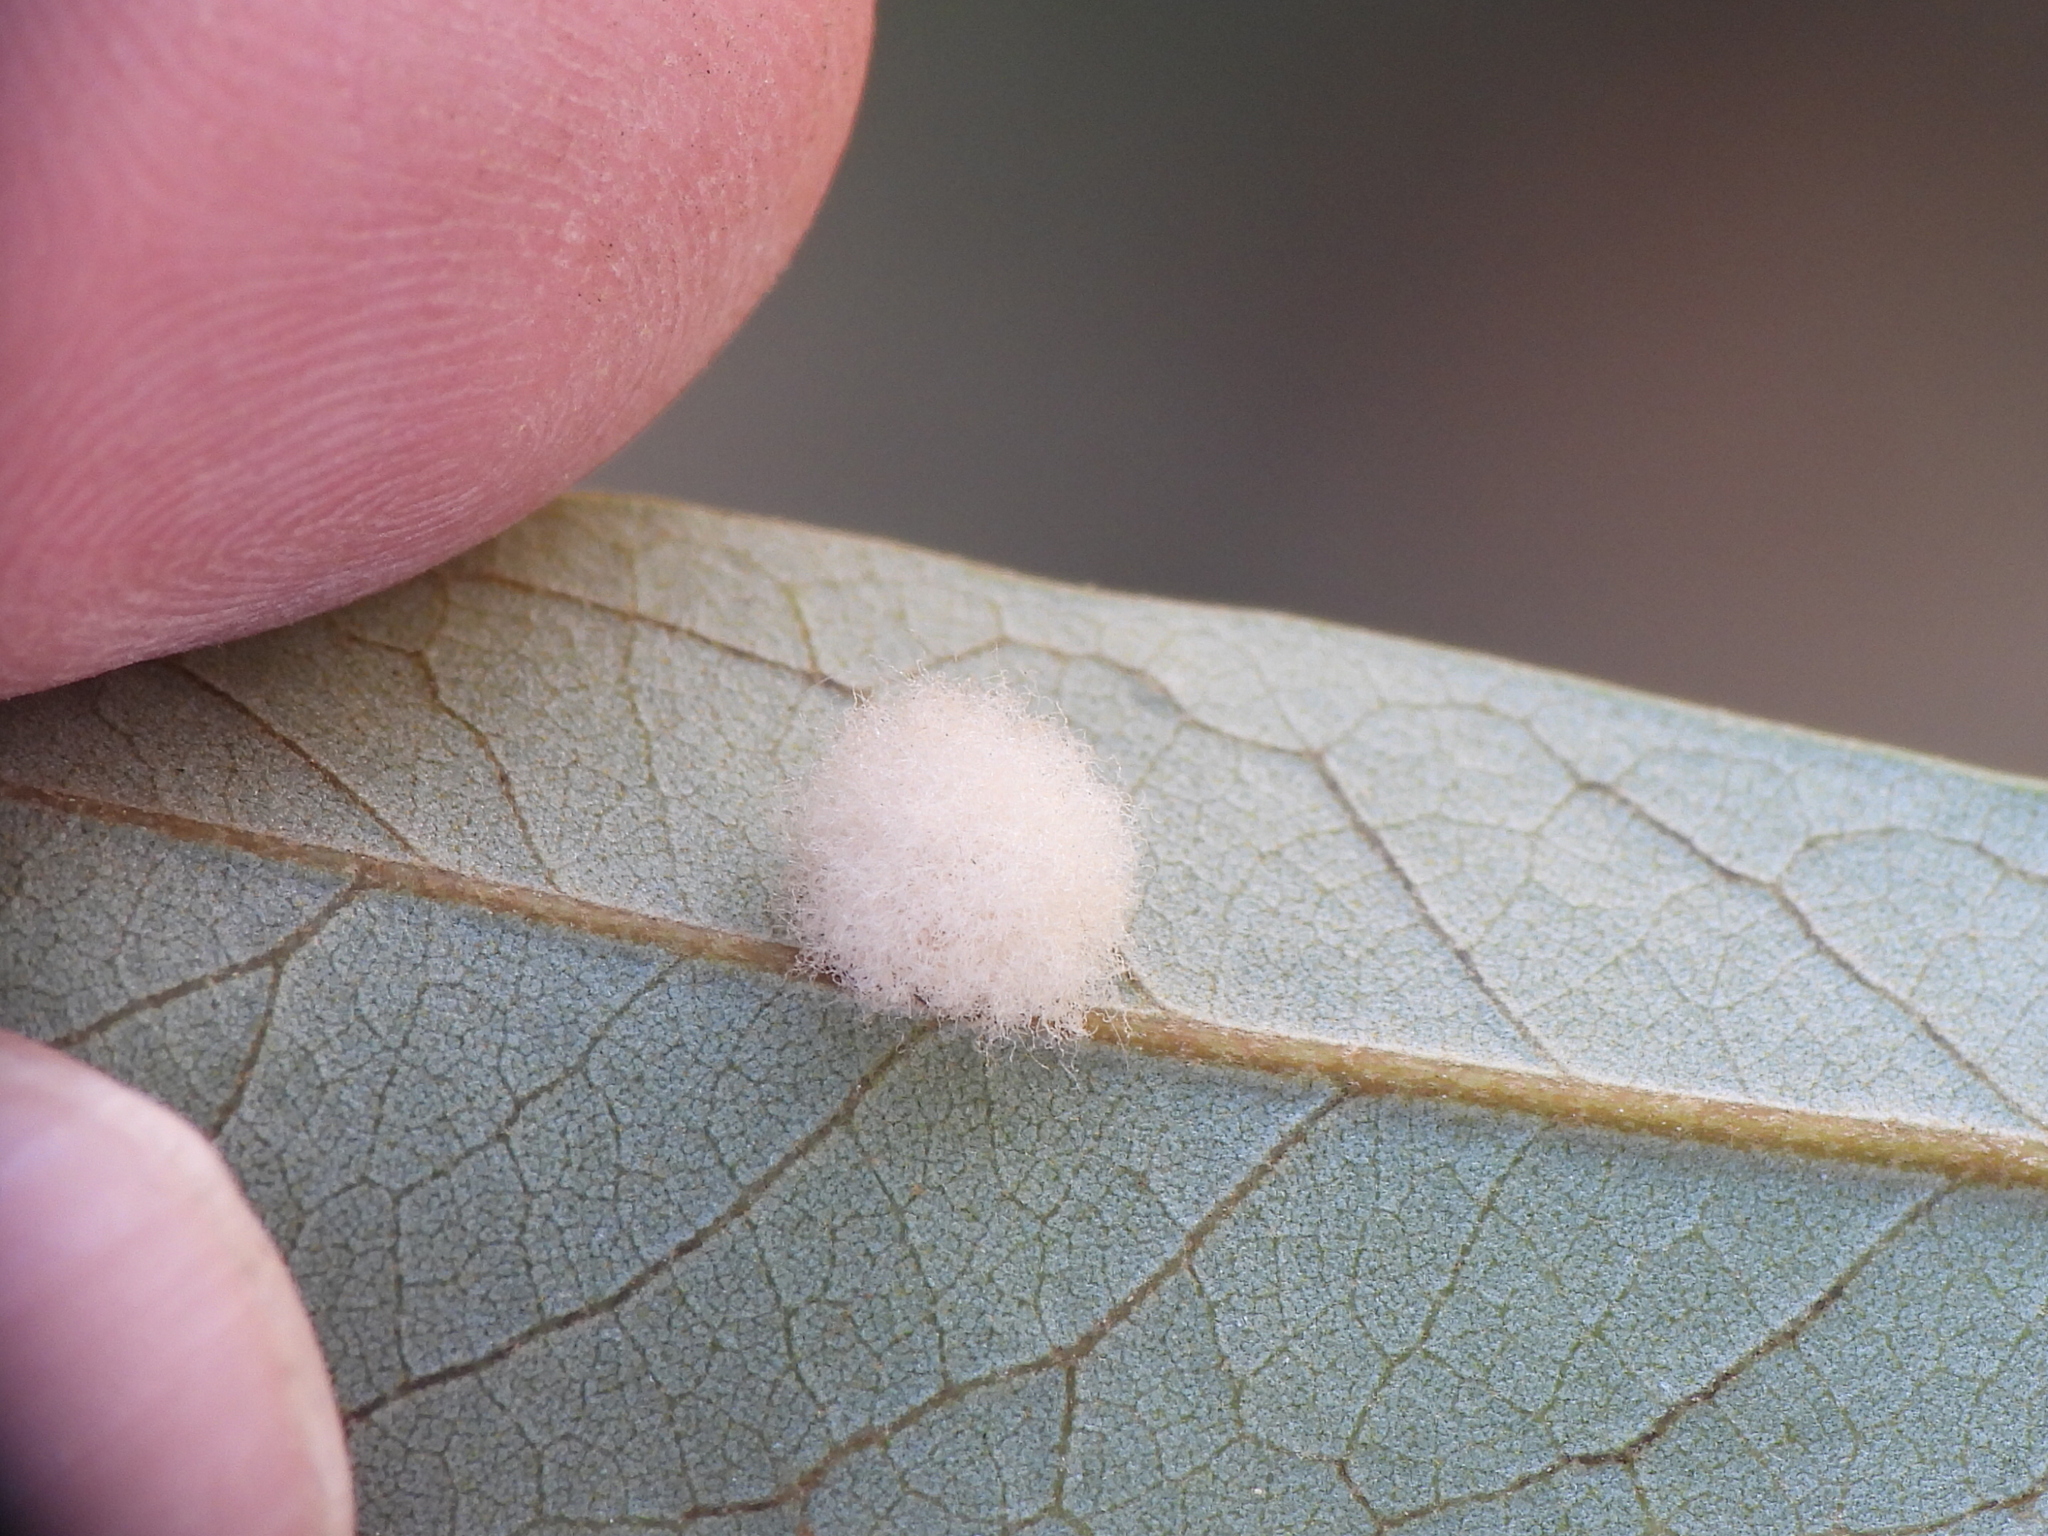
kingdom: Animalia
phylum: Arthropoda
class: Insecta
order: Hymenoptera
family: Cynipidae
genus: Andricus
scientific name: Andricus Druon quercuslanigerum
